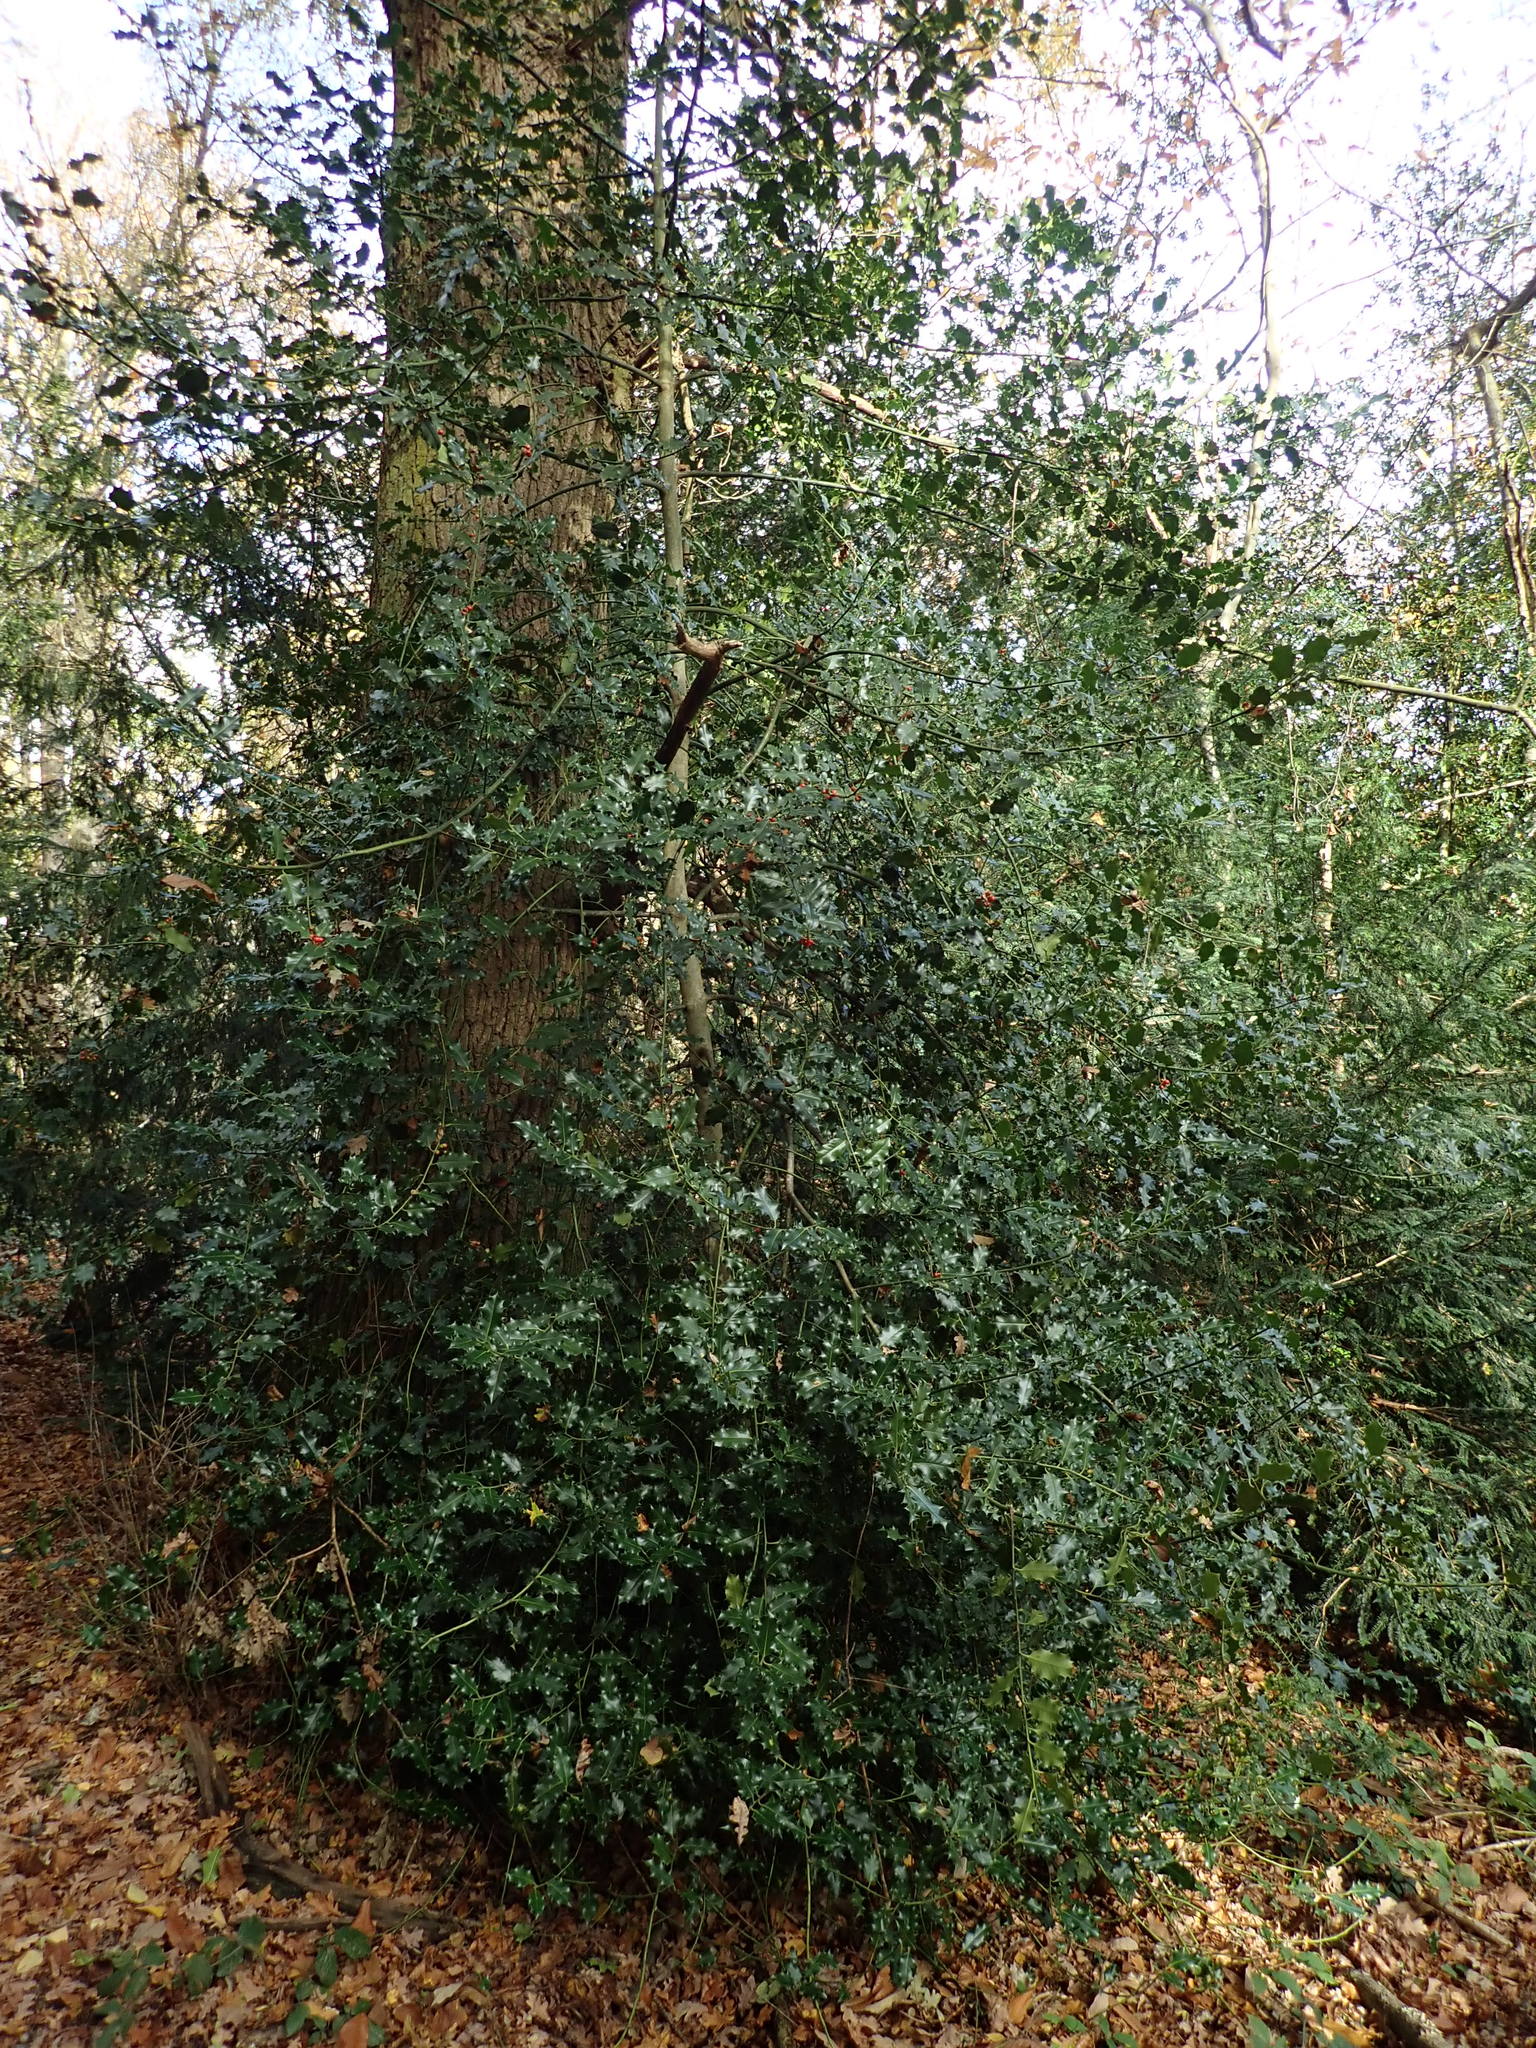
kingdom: Plantae
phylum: Tracheophyta
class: Magnoliopsida
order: Aquifoliales
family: Aquifoliaceae
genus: Ilex
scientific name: Ilex aquifolium
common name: English holly
